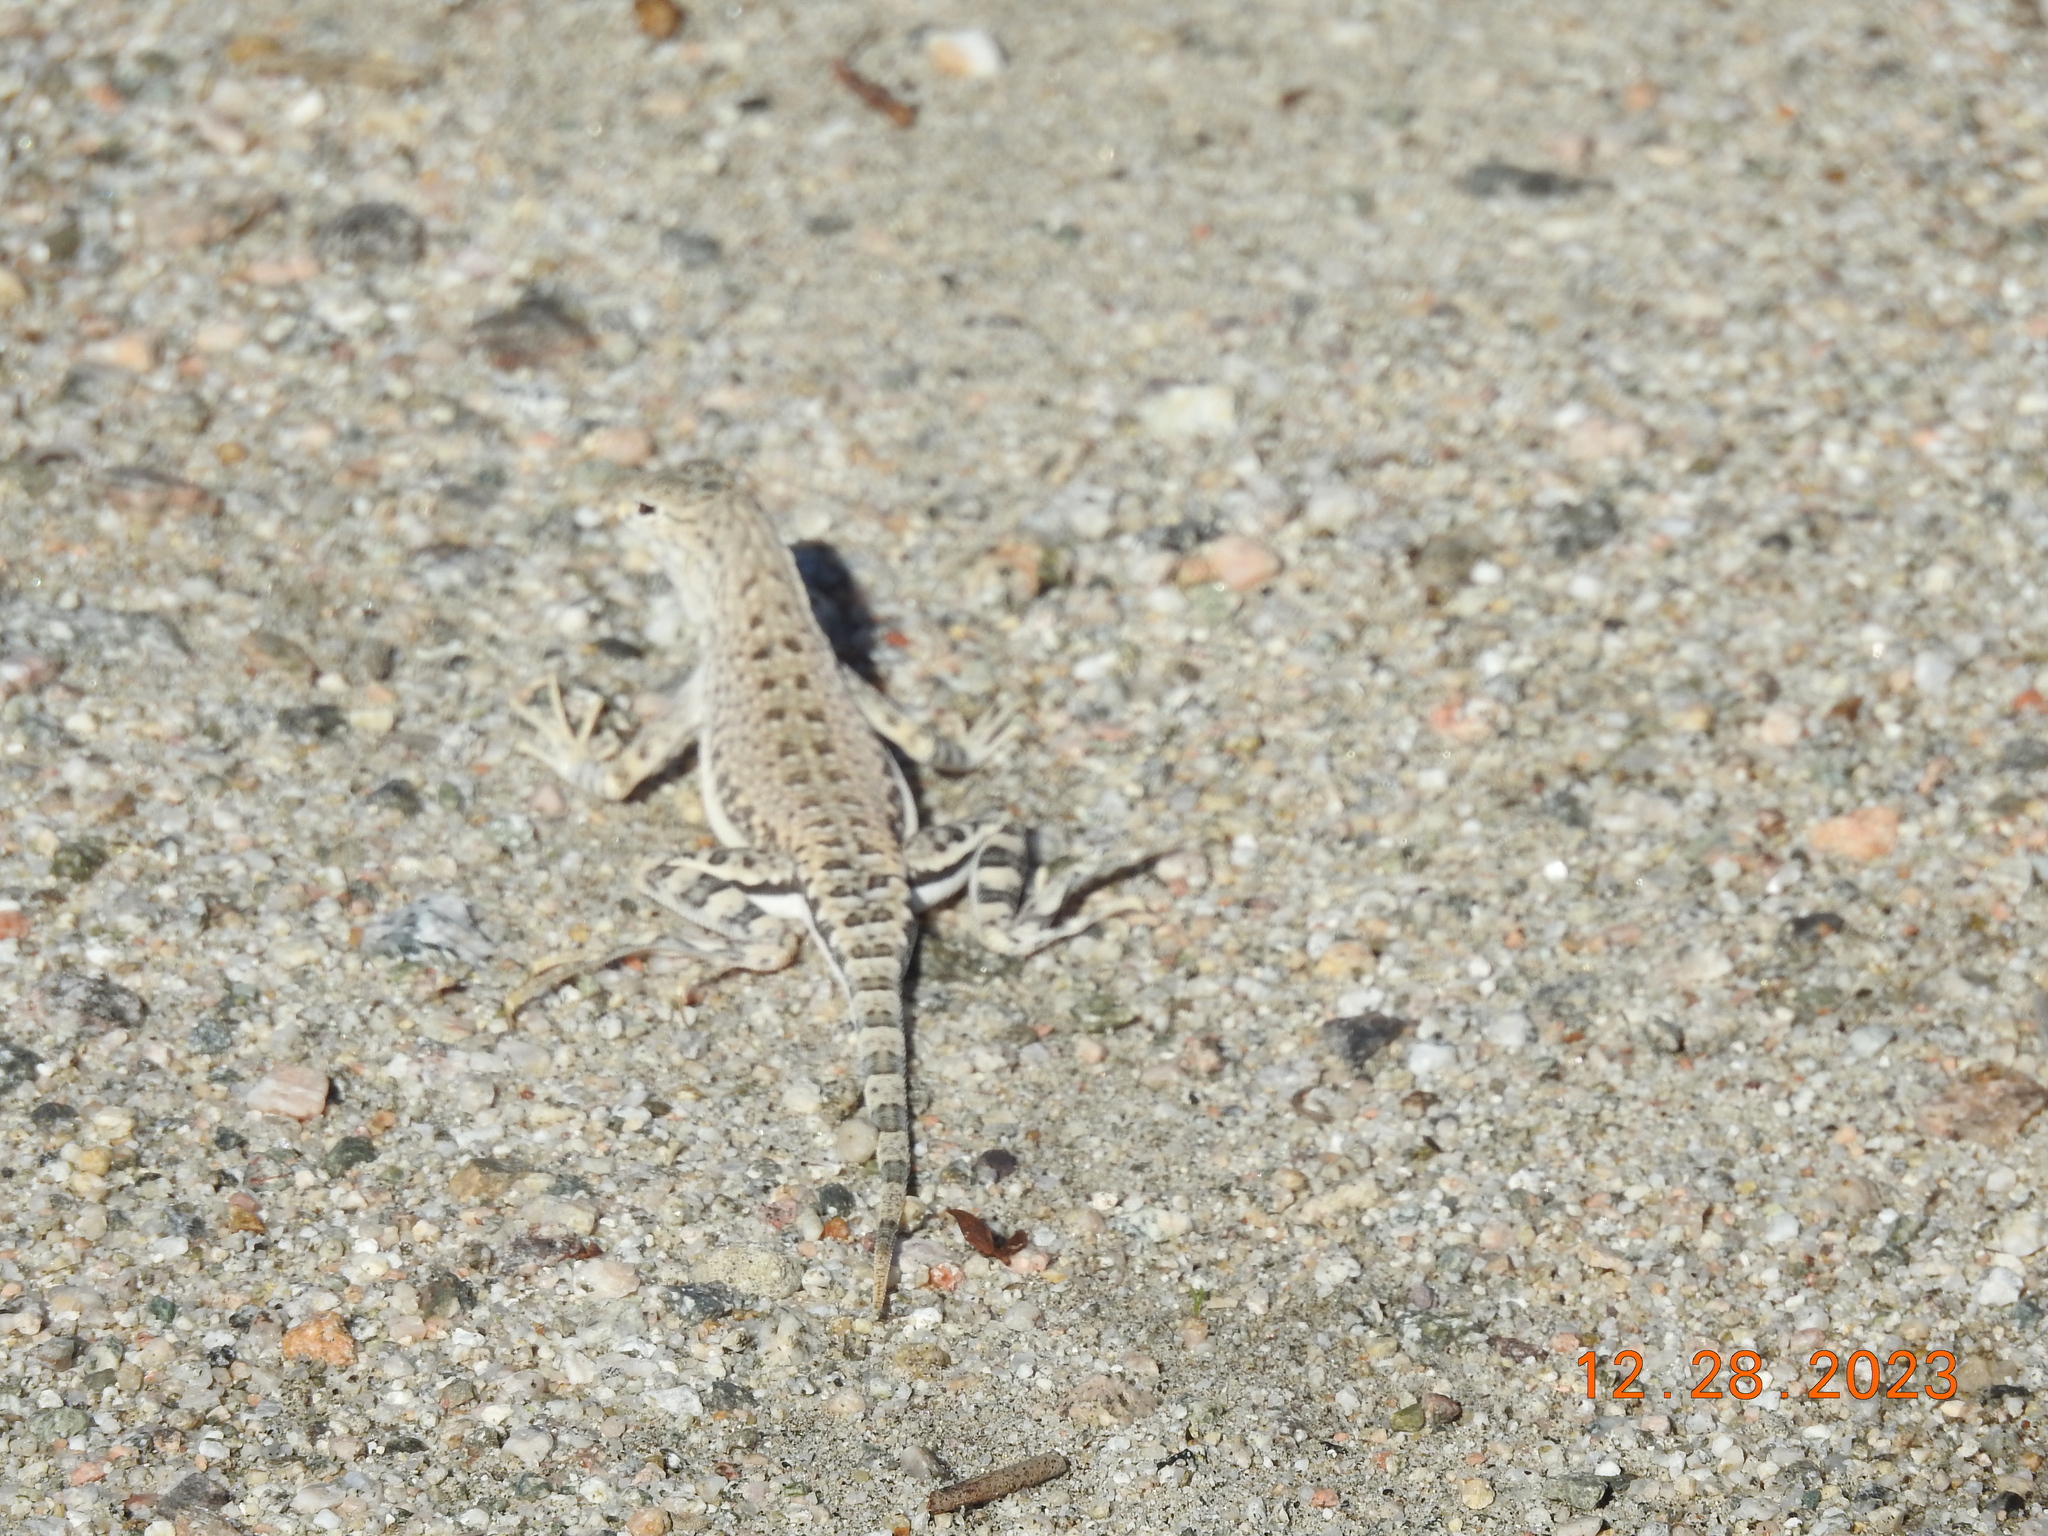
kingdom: Animalia
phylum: Chordata
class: Squamata
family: Phrynosomatidae
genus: Callisaurus
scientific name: Callisaurus draconoides
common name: Zebra-tailed lizard
